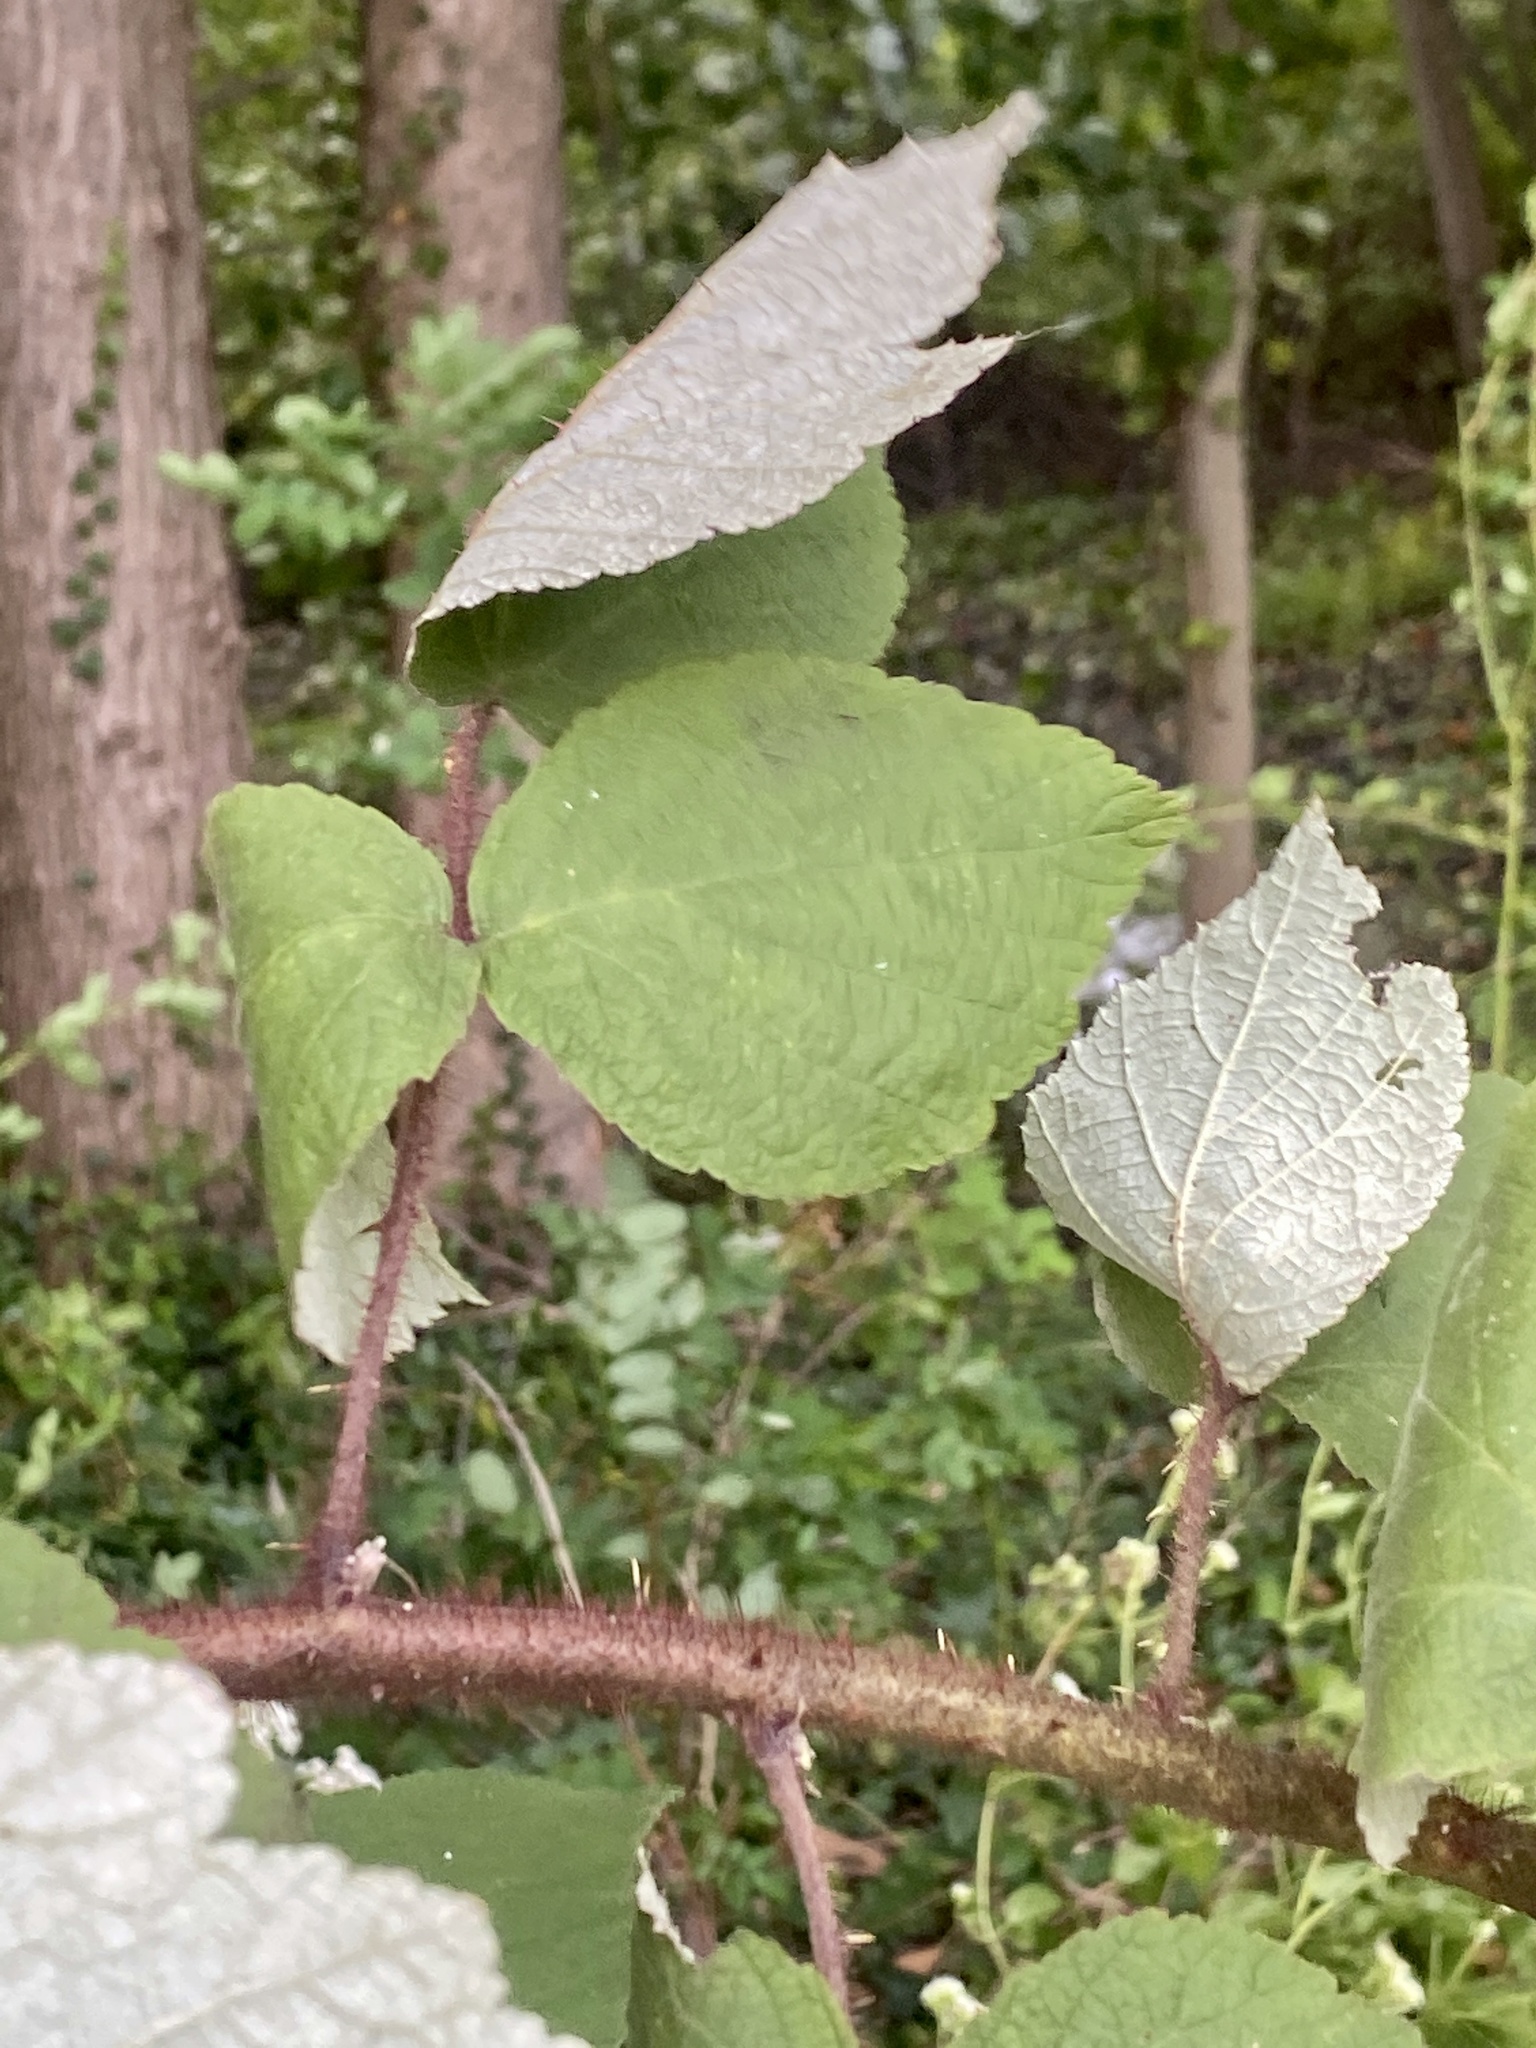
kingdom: Plantae
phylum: Tracheophyta
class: Magnoliopsida
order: Rosales
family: Rosaceae
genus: Rubus
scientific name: Rubus phoenicolasius
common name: Japanese wineberry
